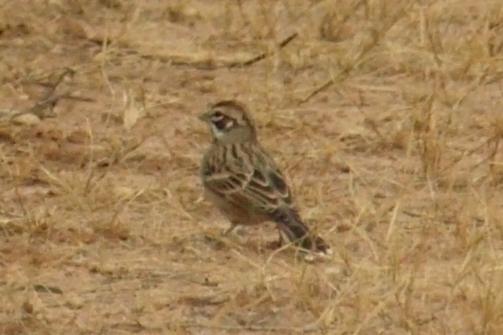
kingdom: Animalia
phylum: Chordata
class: Aves
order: Passeriformes
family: Passerellidae
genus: Chondestes
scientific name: Chondestes grammacus
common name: Lark sparrow
